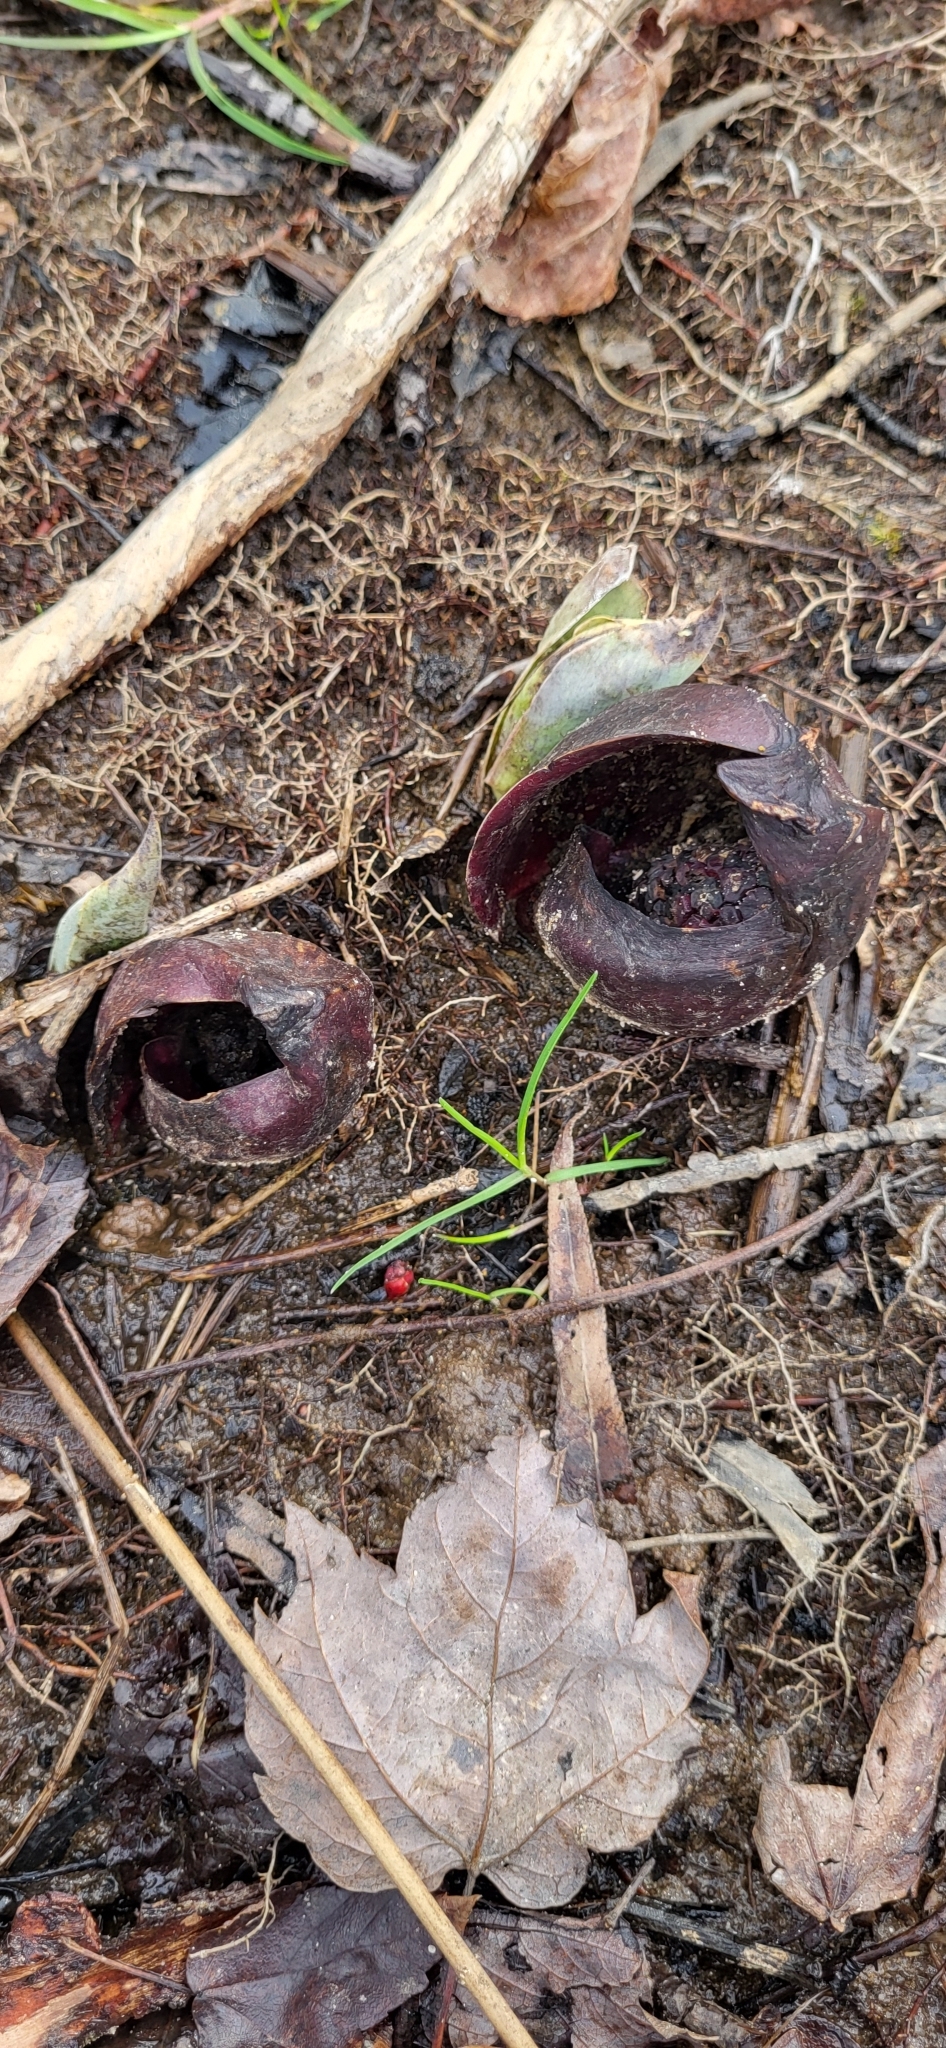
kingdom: Plantae
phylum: Tracheophyta
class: Liliopsida
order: Alismatales
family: Araceae
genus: Symplocarpus
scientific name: Symplocarpus foetidus
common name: Eastern skunk cabbage
